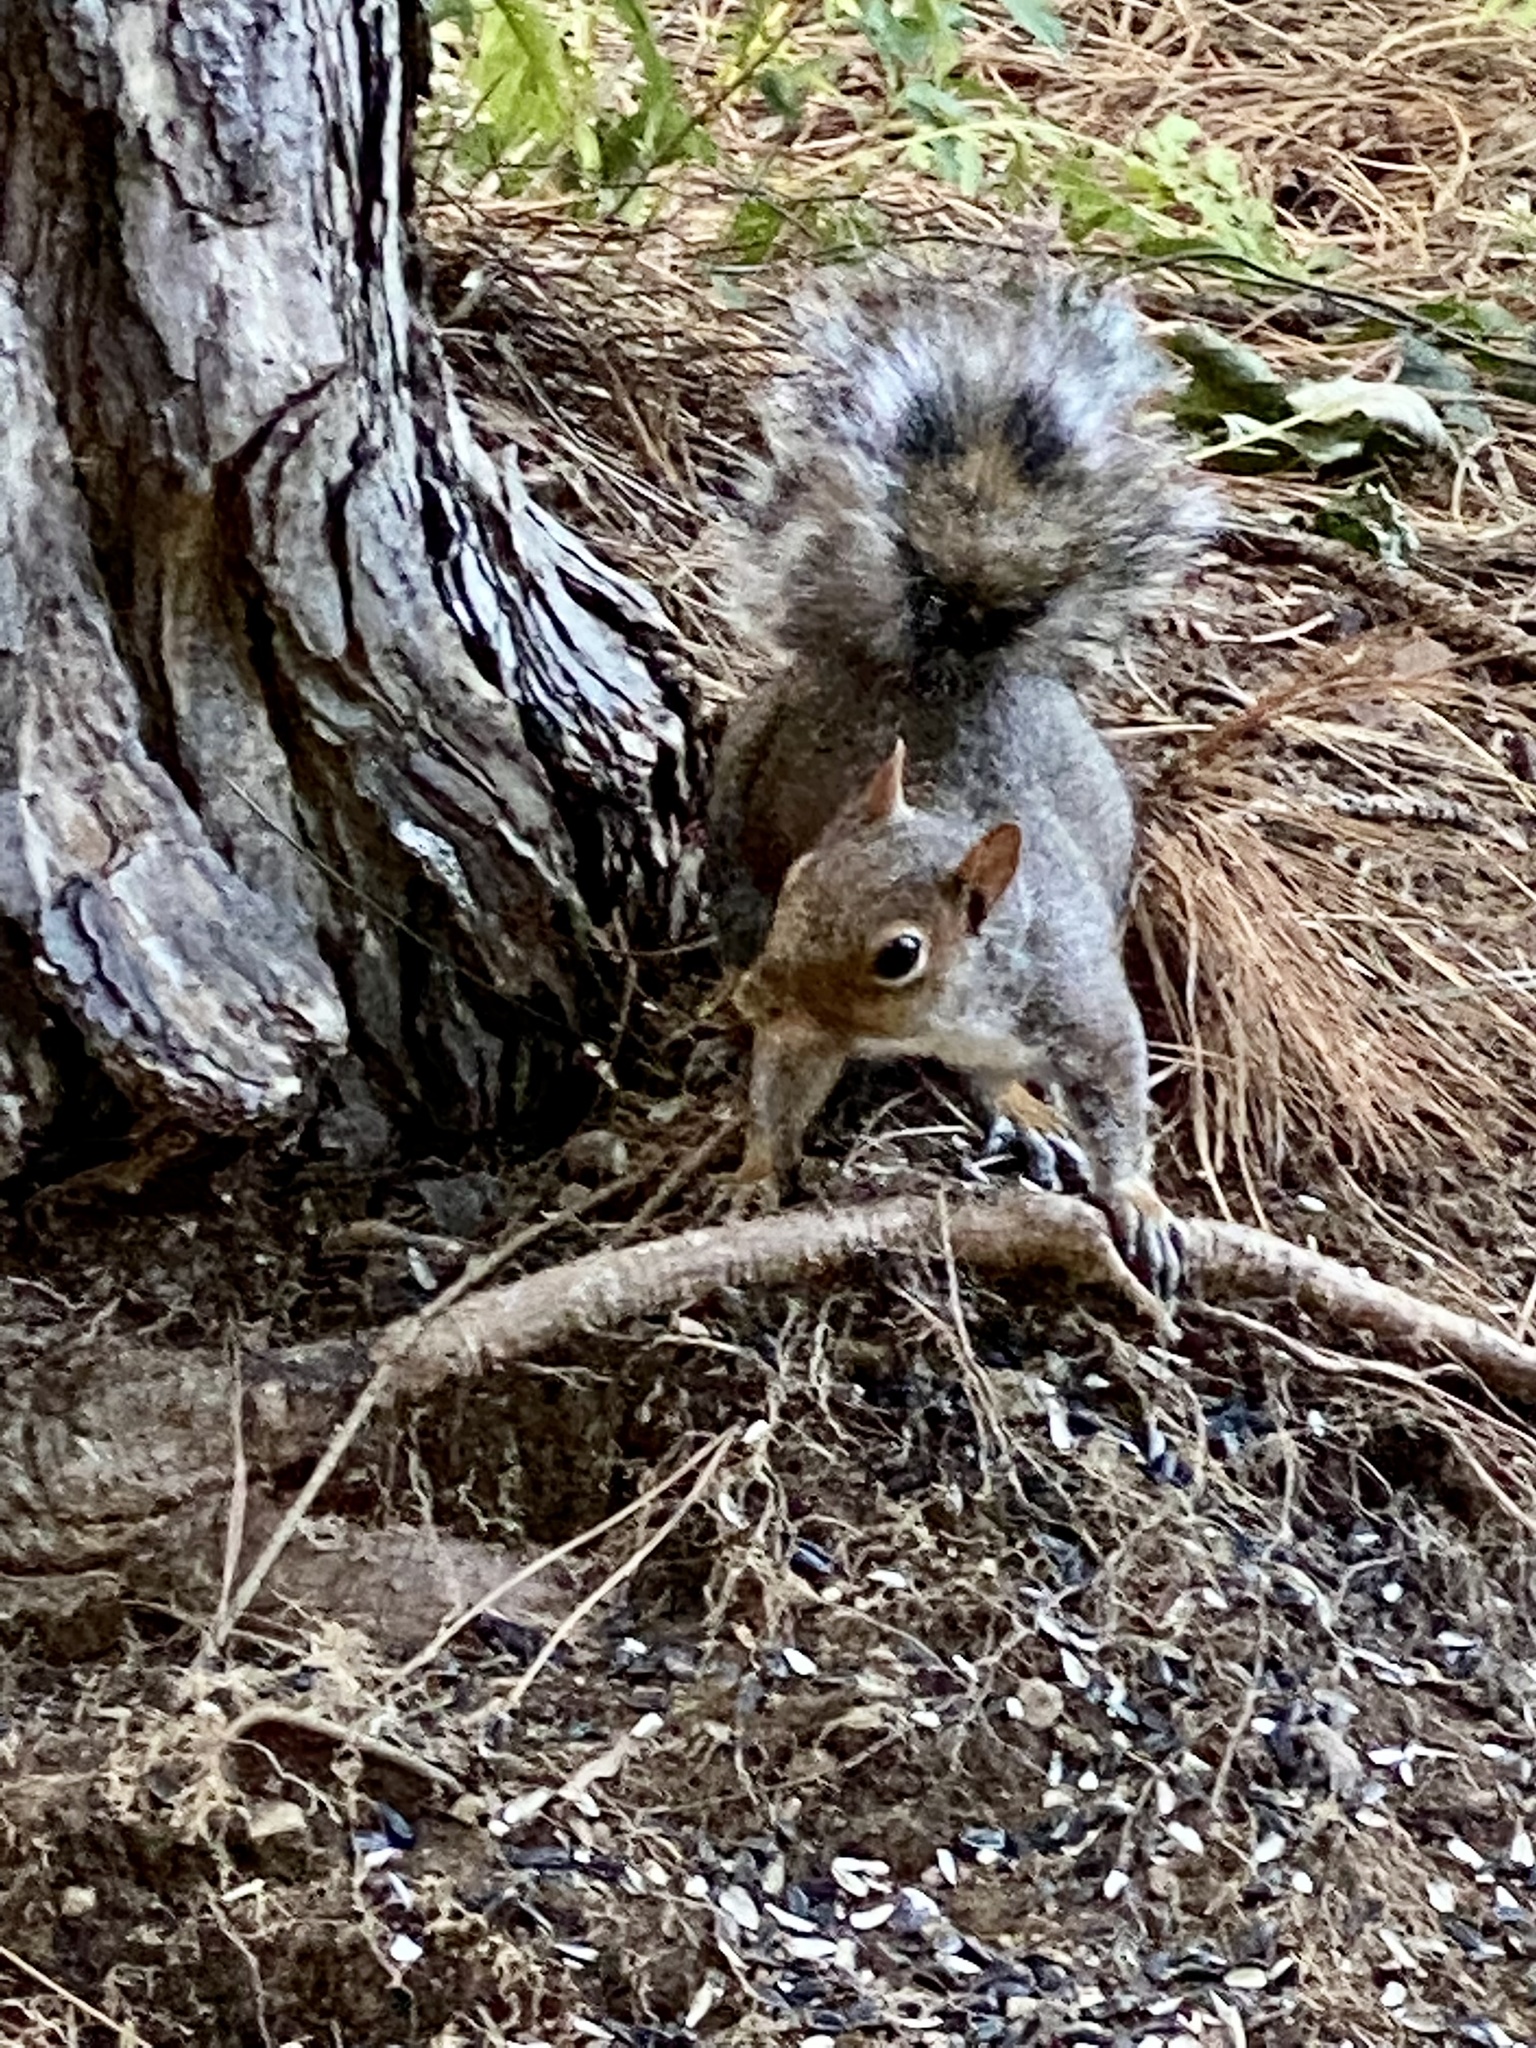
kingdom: Animalia
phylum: Chordata
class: Mammalia
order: Rodentia
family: Sciuridae
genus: Sciurus
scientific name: Sciurus carolinensis
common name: Eastern gray squirrel
